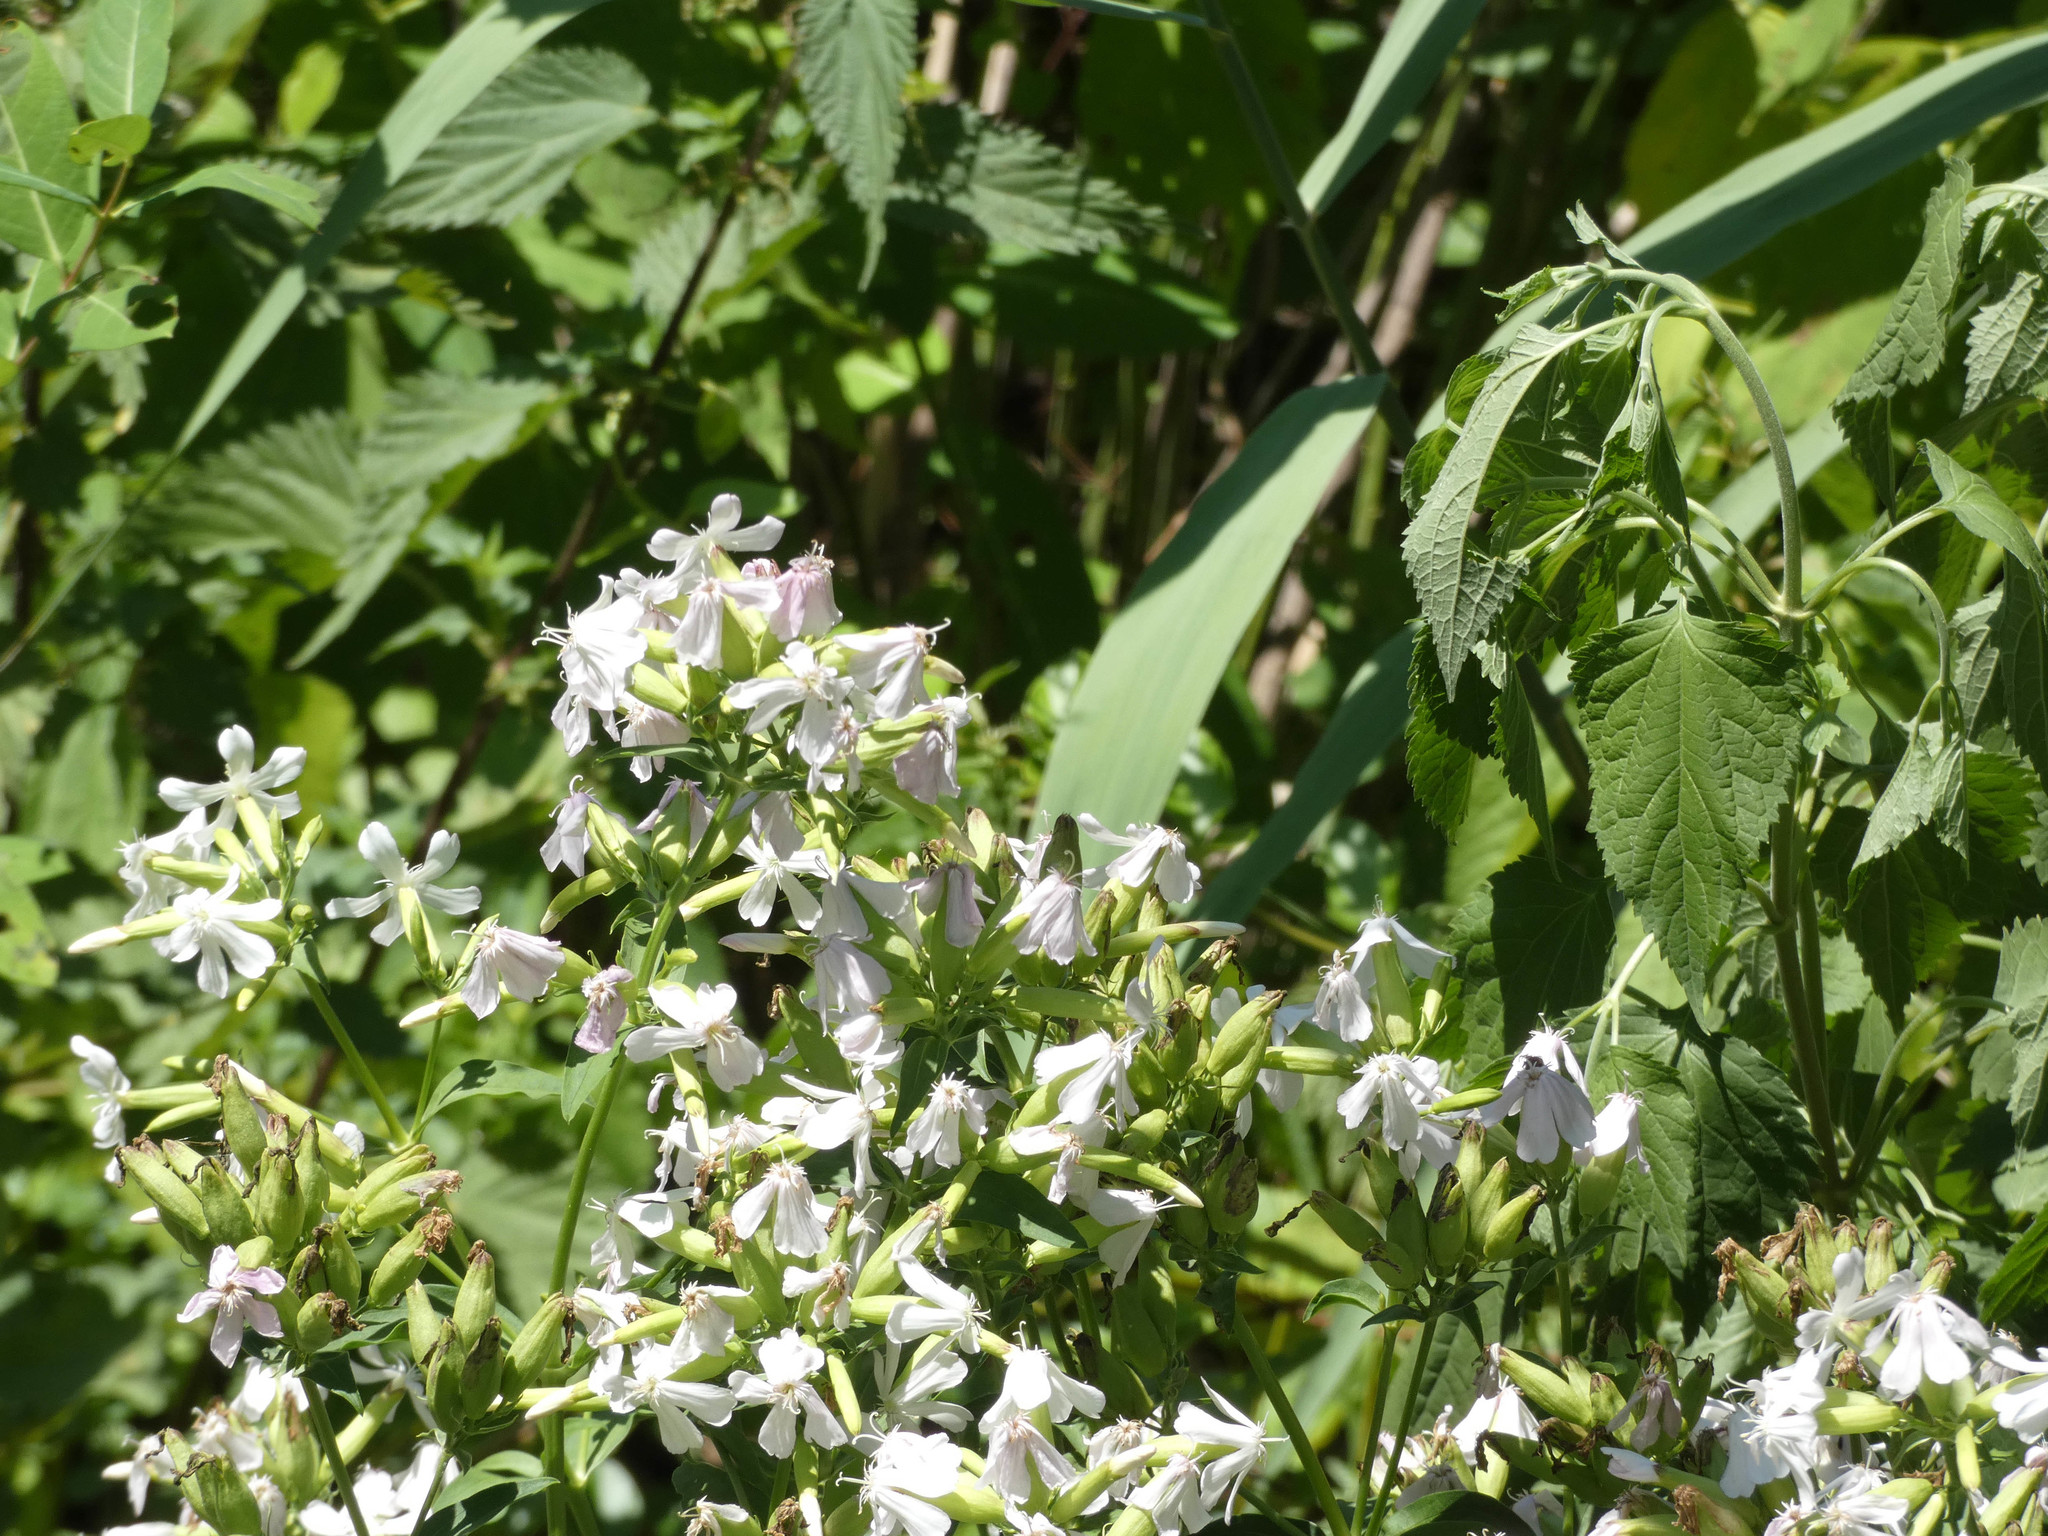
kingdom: Plantae
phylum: Tracheophyta
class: Magnoliopsida
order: Caryophyllales
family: Caryophyllaceae
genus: Saponaria
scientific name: Saponaria officinalis
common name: Soapwort
